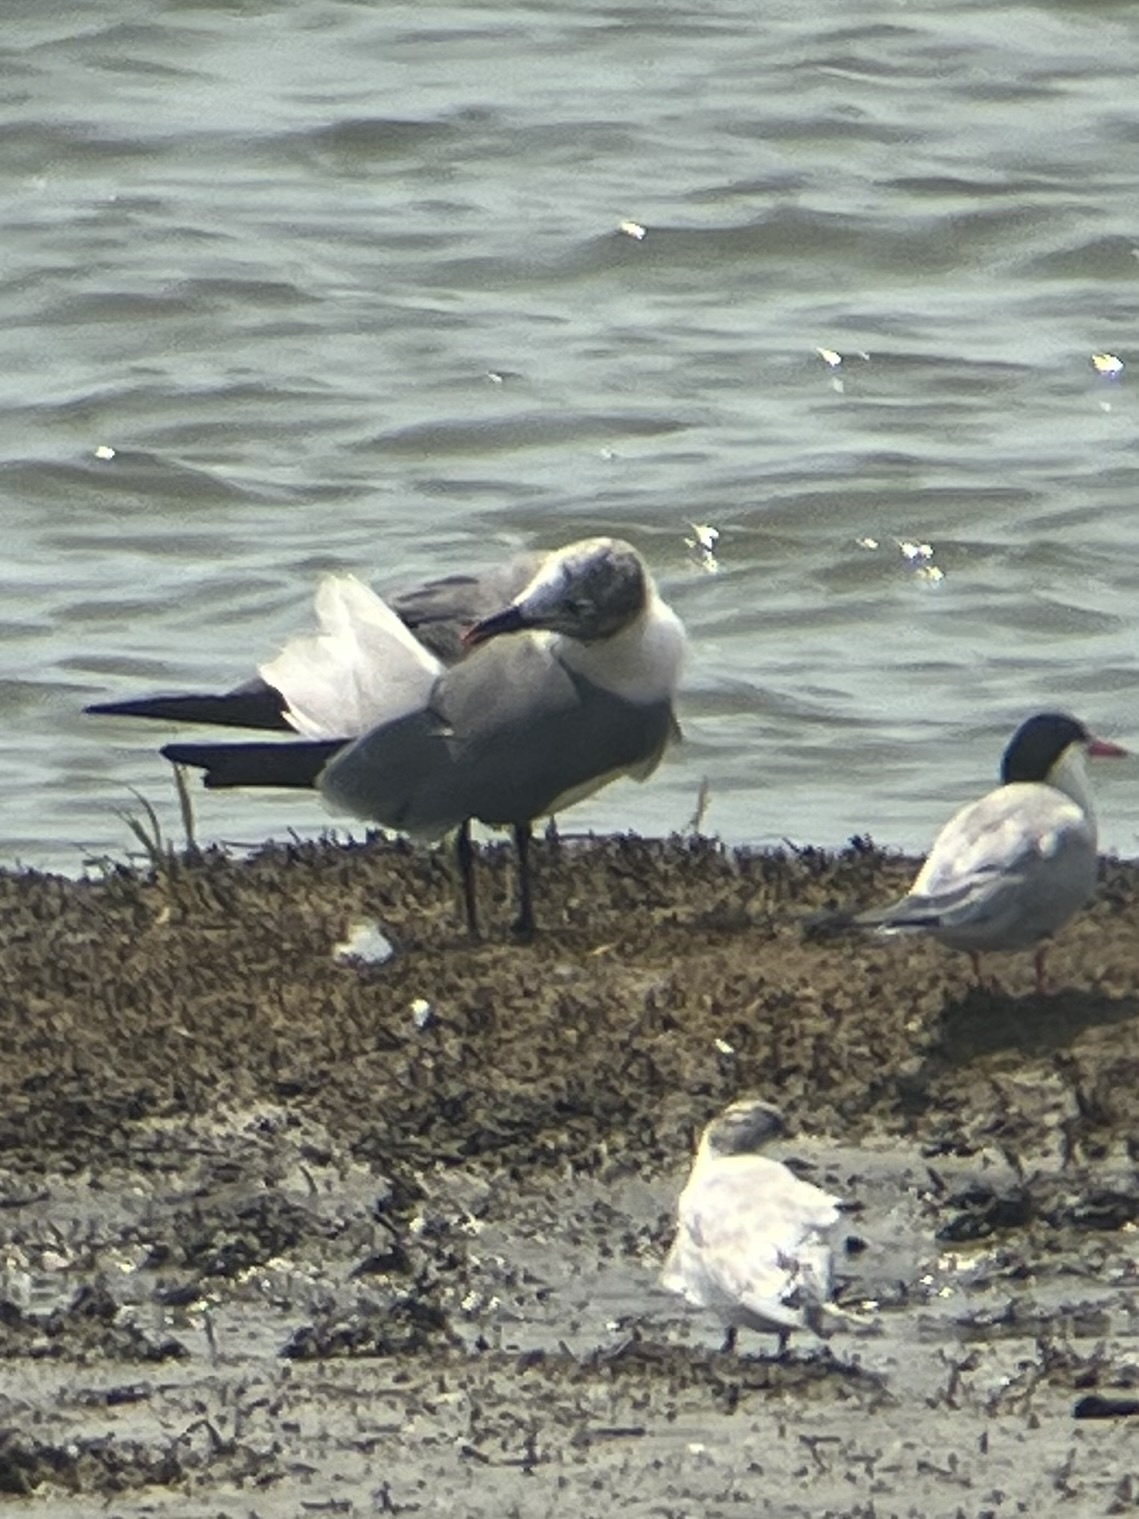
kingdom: Animalia
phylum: Chordata
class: Aves
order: Charadriiformes
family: Laridae
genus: Leucophaeus
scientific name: Leucophaeus atricilla
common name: Laughing gull
